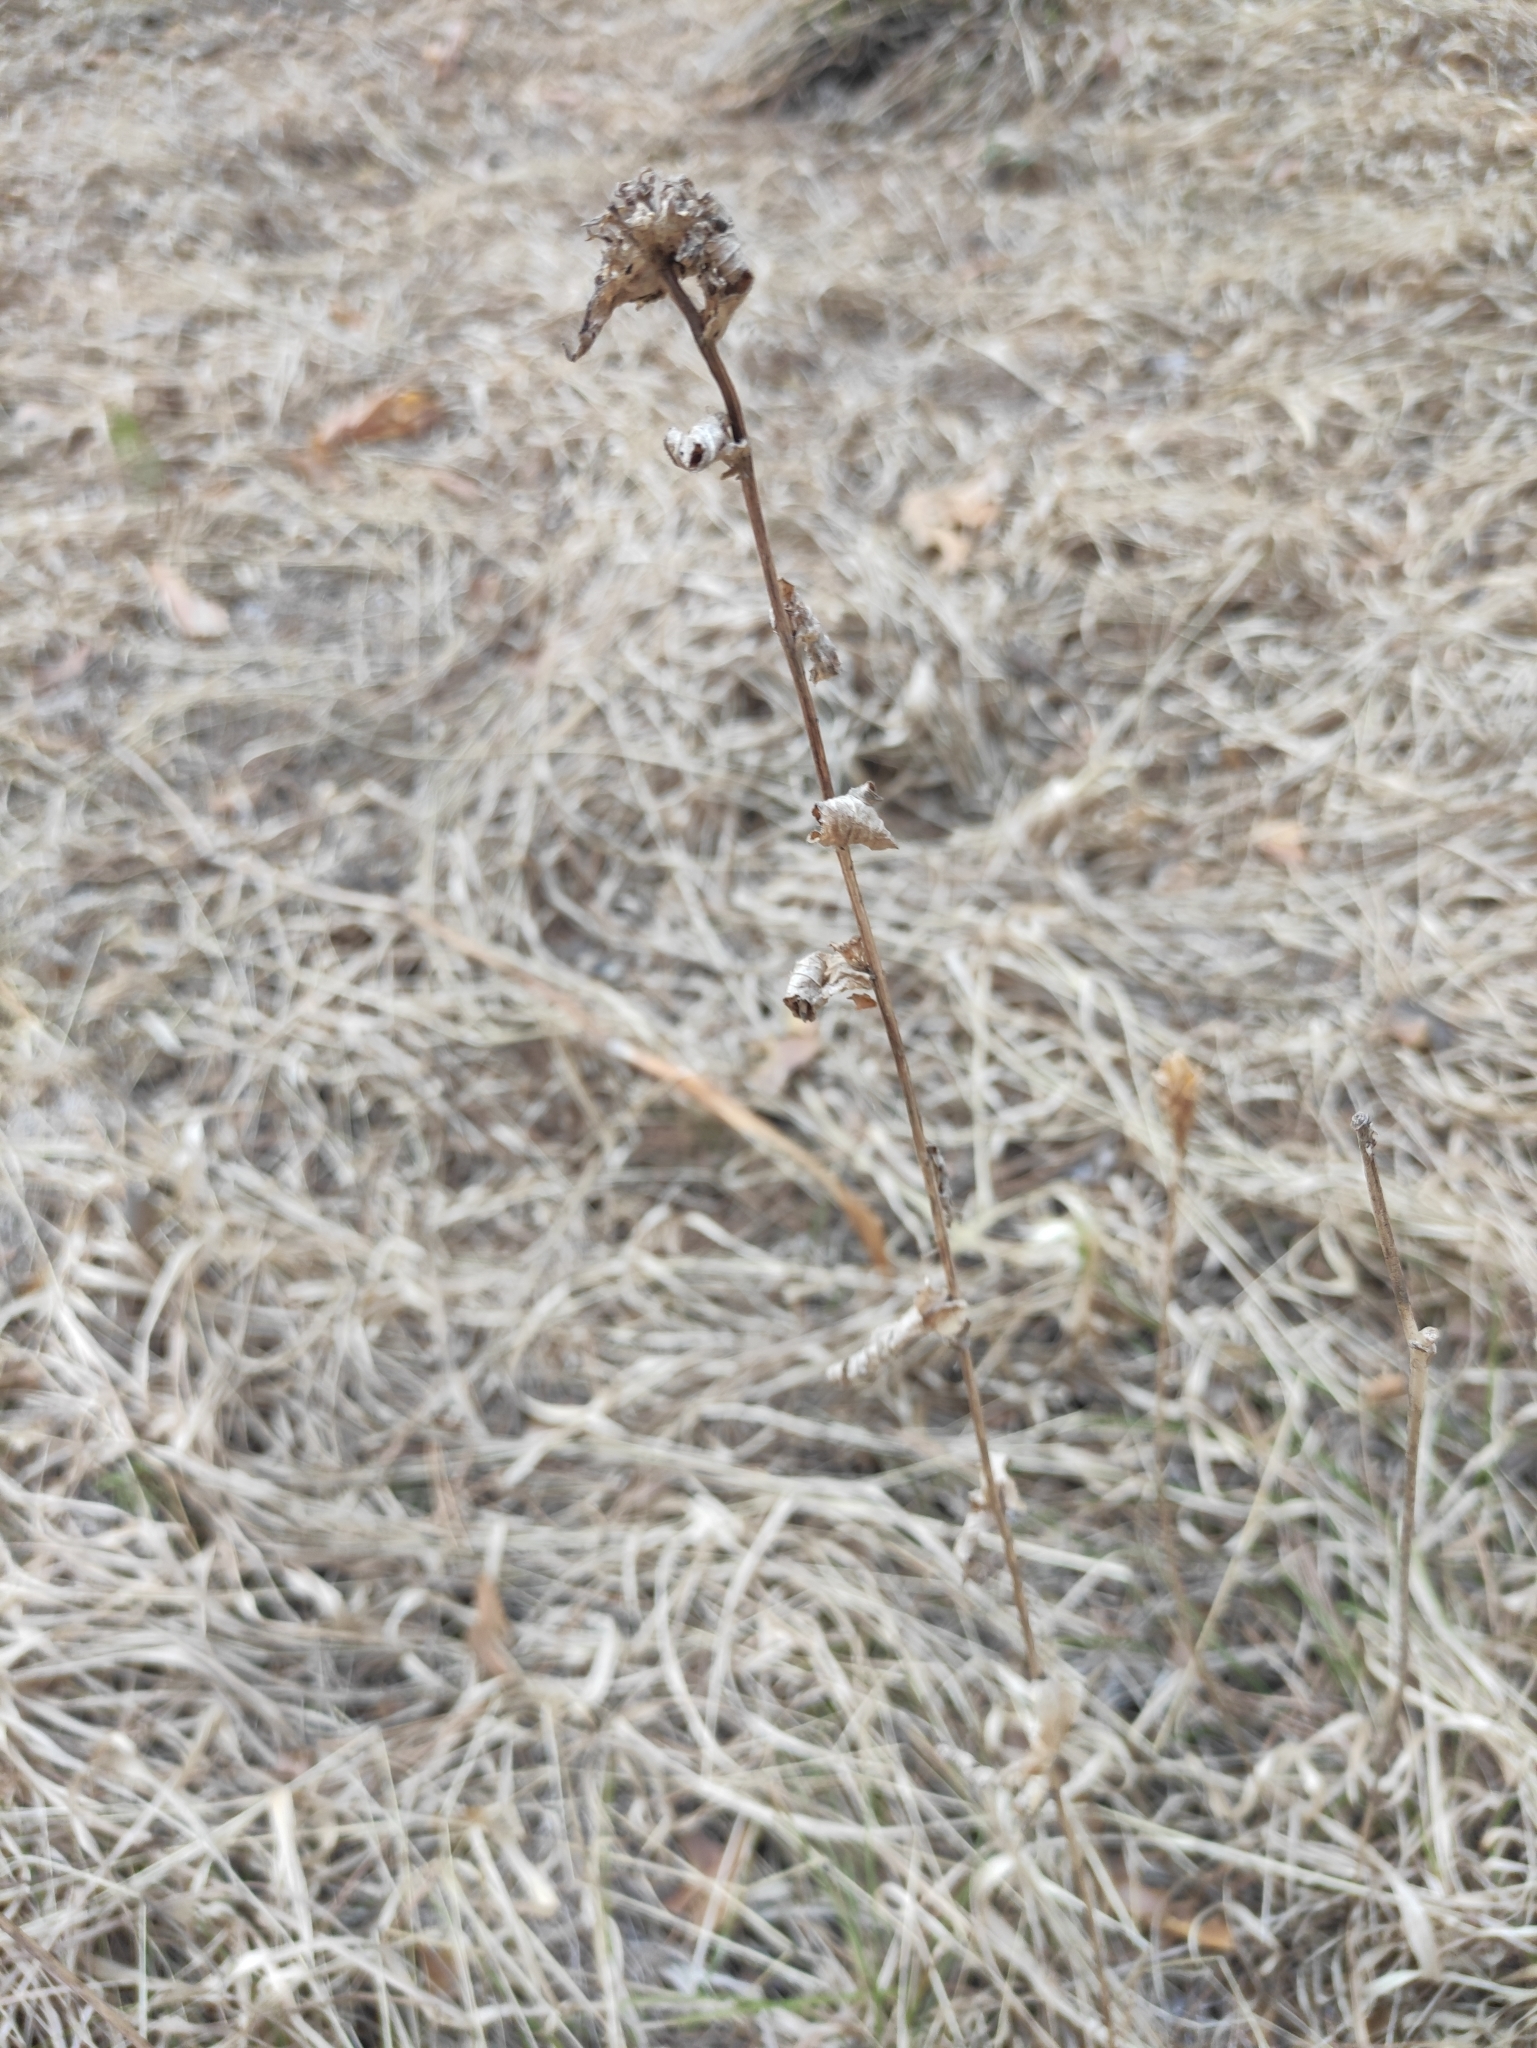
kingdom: Plantae
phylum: Tracheophyta
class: Magnoliopsida
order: Asterales
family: Campanulaceae
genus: Campanula
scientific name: Campanula glomerata
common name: Clustered bellflower
